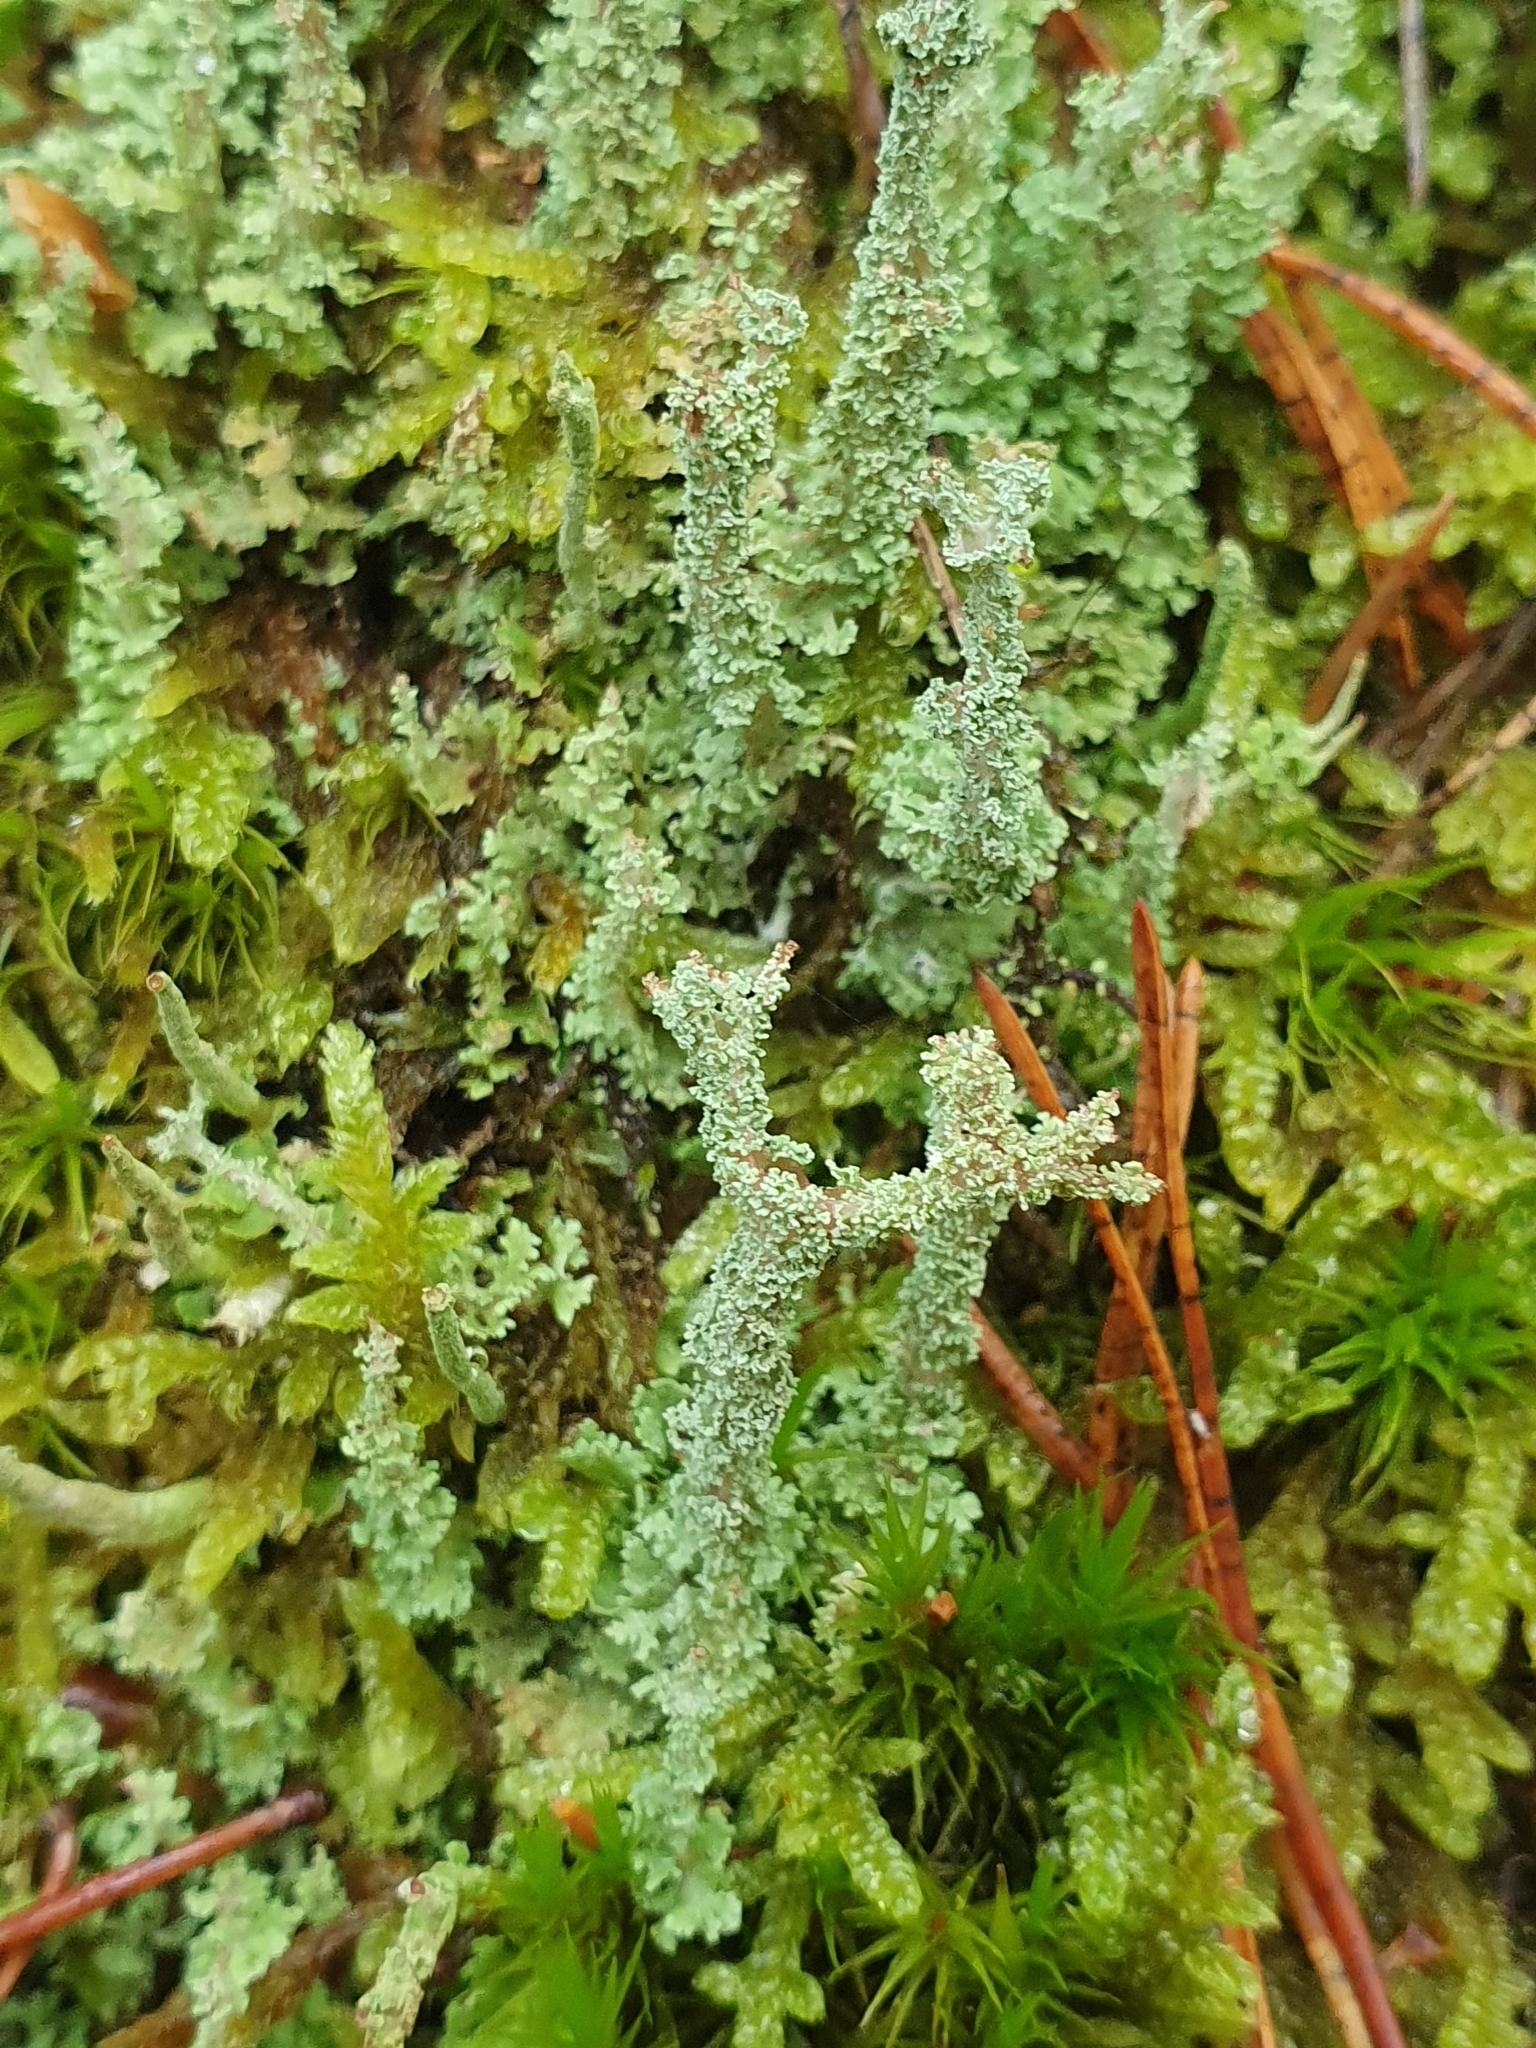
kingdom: Fungi
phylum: Ascomycota
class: Lecanoromycetes
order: Lecanorales
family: Cladoniaceae
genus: Cladonia
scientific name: Cladonia squamosa
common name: Dragon horn
